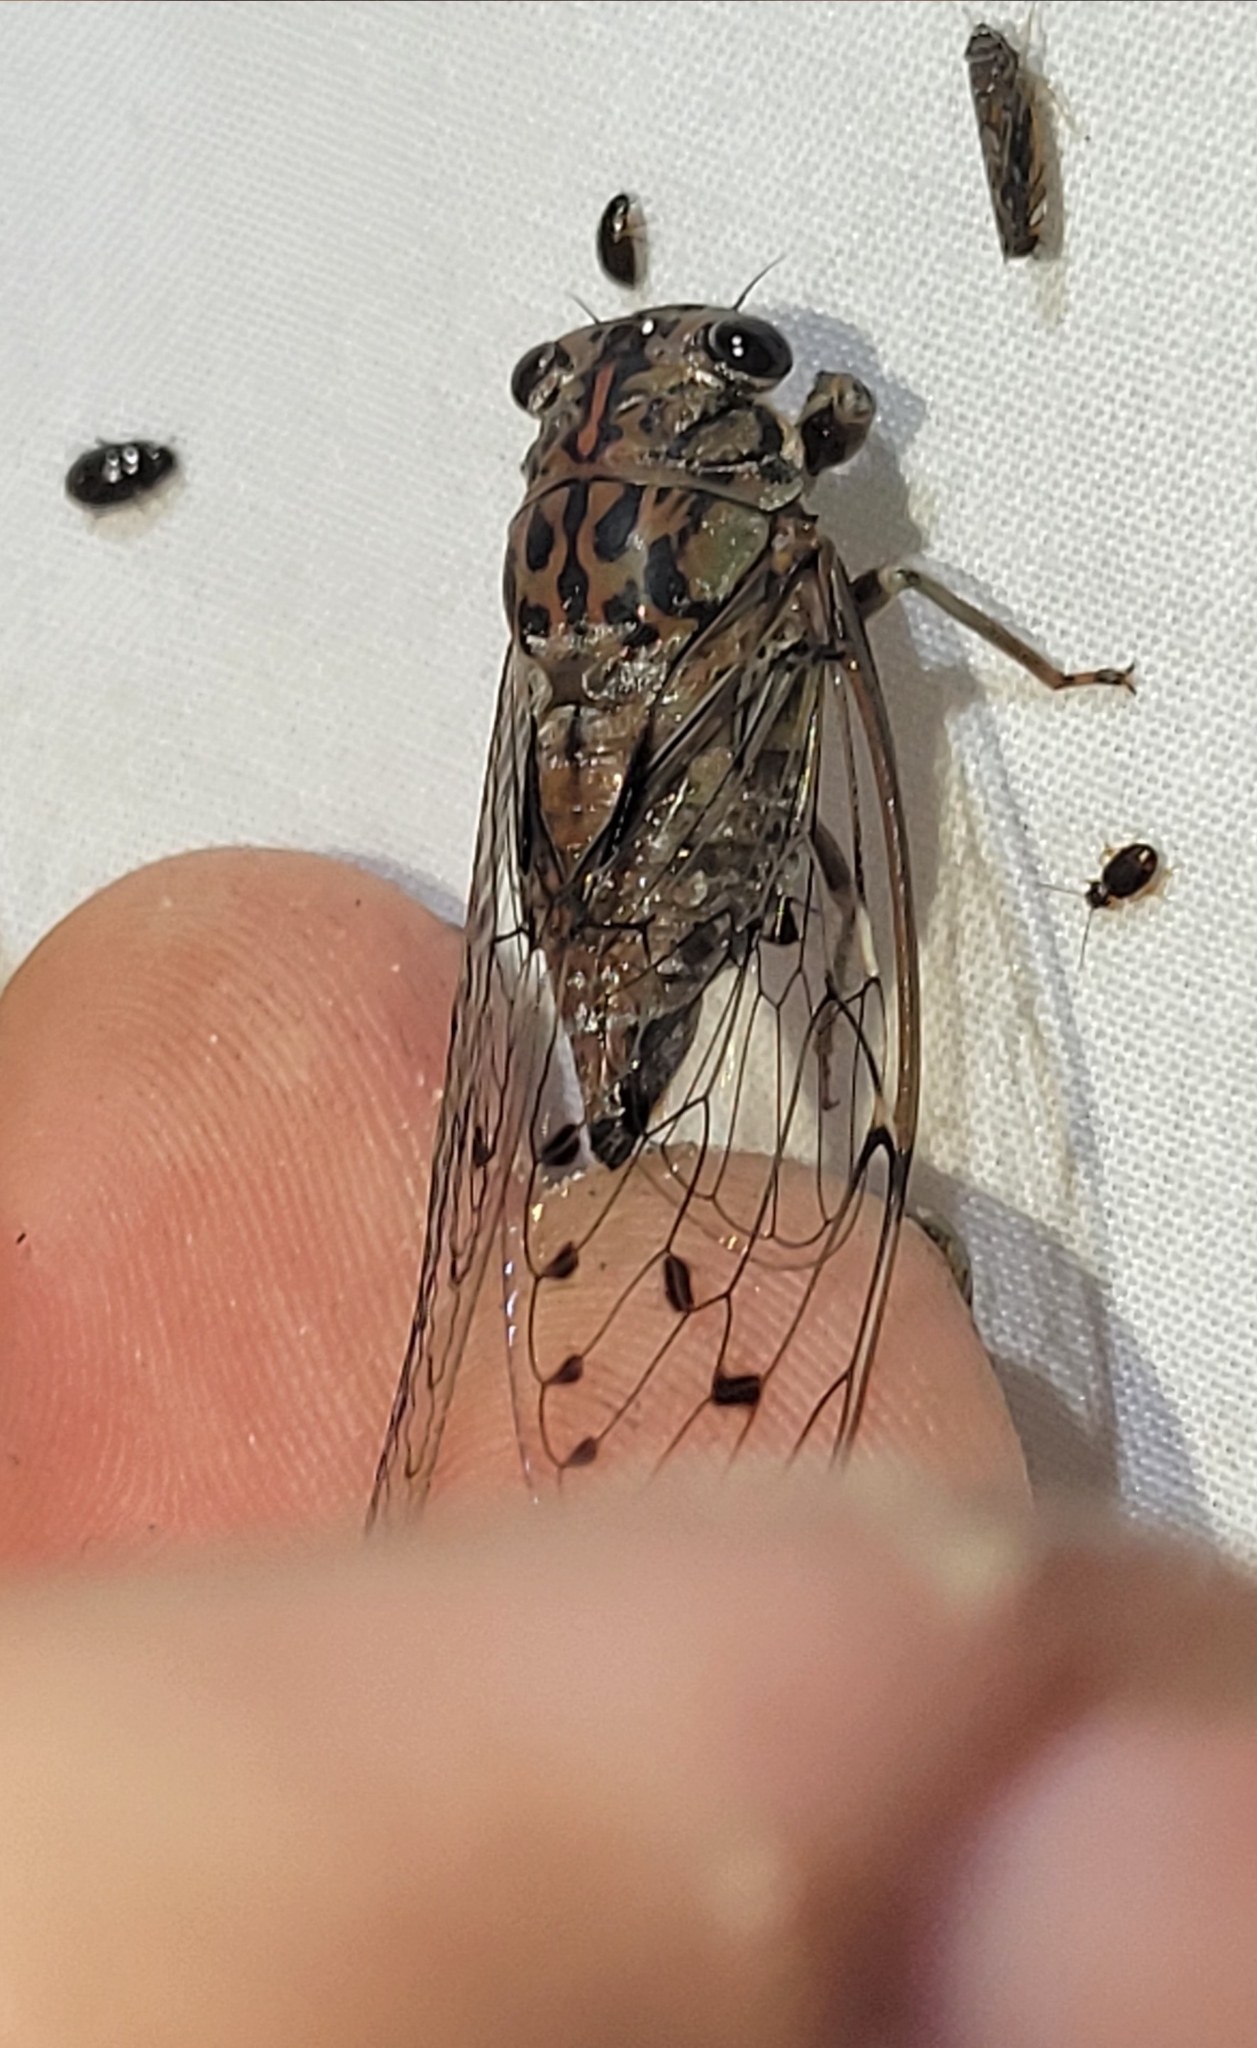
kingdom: Animalia
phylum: Arthropoda
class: Insecta
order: Hemiptera
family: Cicadidae
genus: Neocicada
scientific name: Neocicada hieroglyphica
